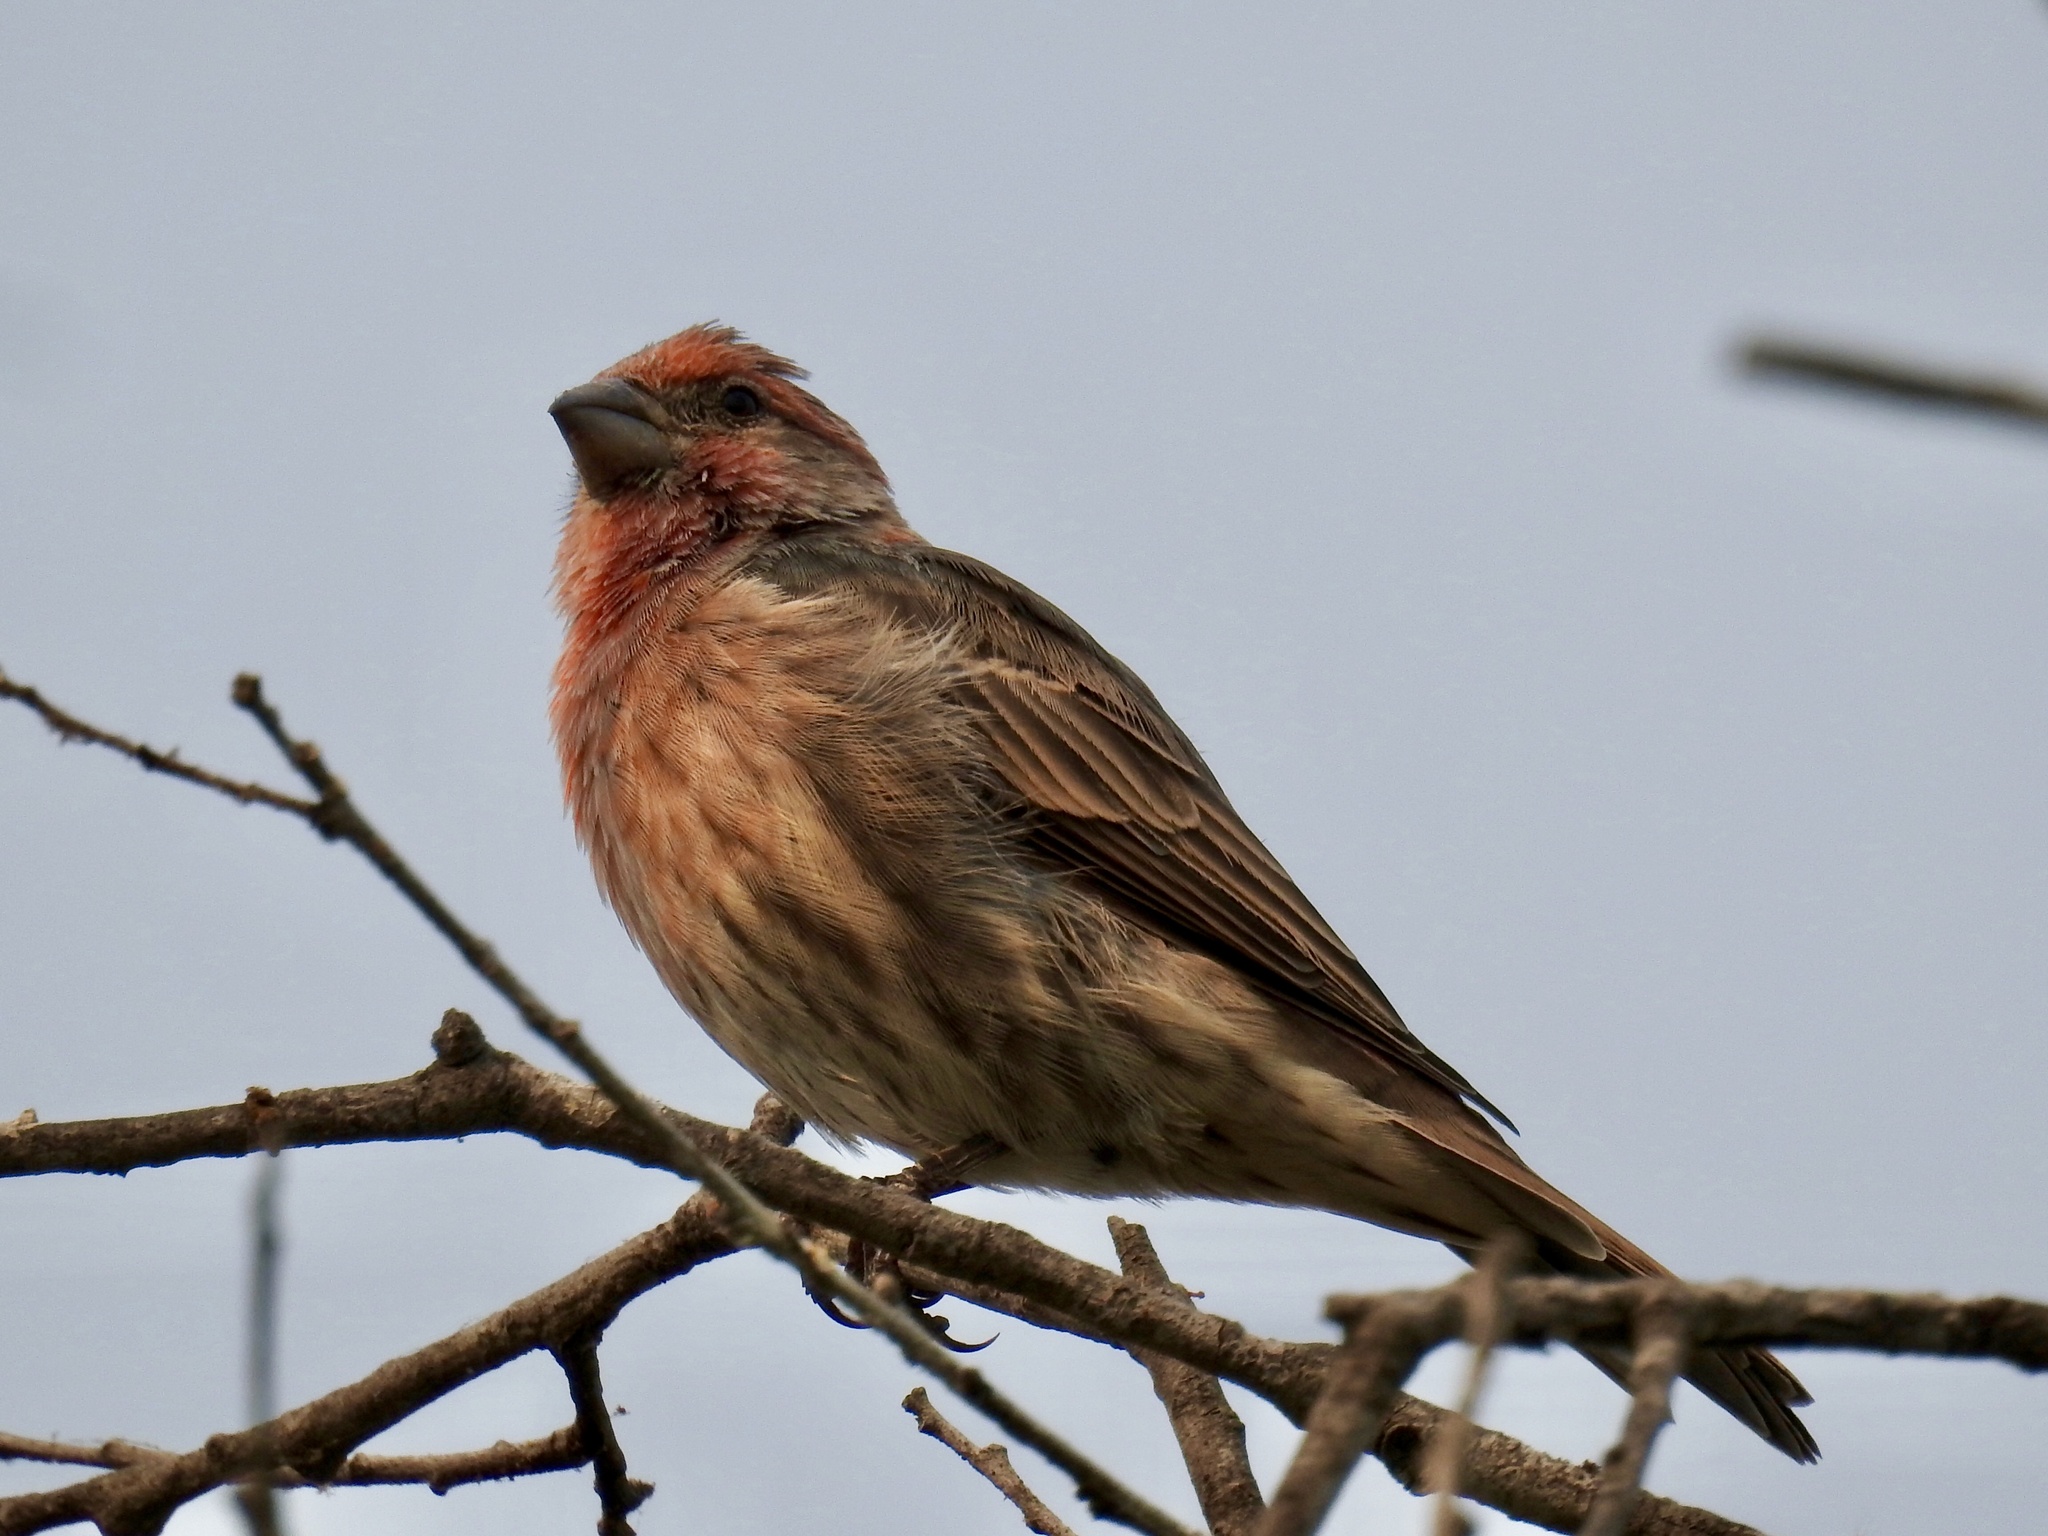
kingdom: Animalia
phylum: Chordata
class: Aves
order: Passeriformes
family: Fringillidae
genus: Haemorhous
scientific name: Haemorhous mexicanus
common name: House finch
